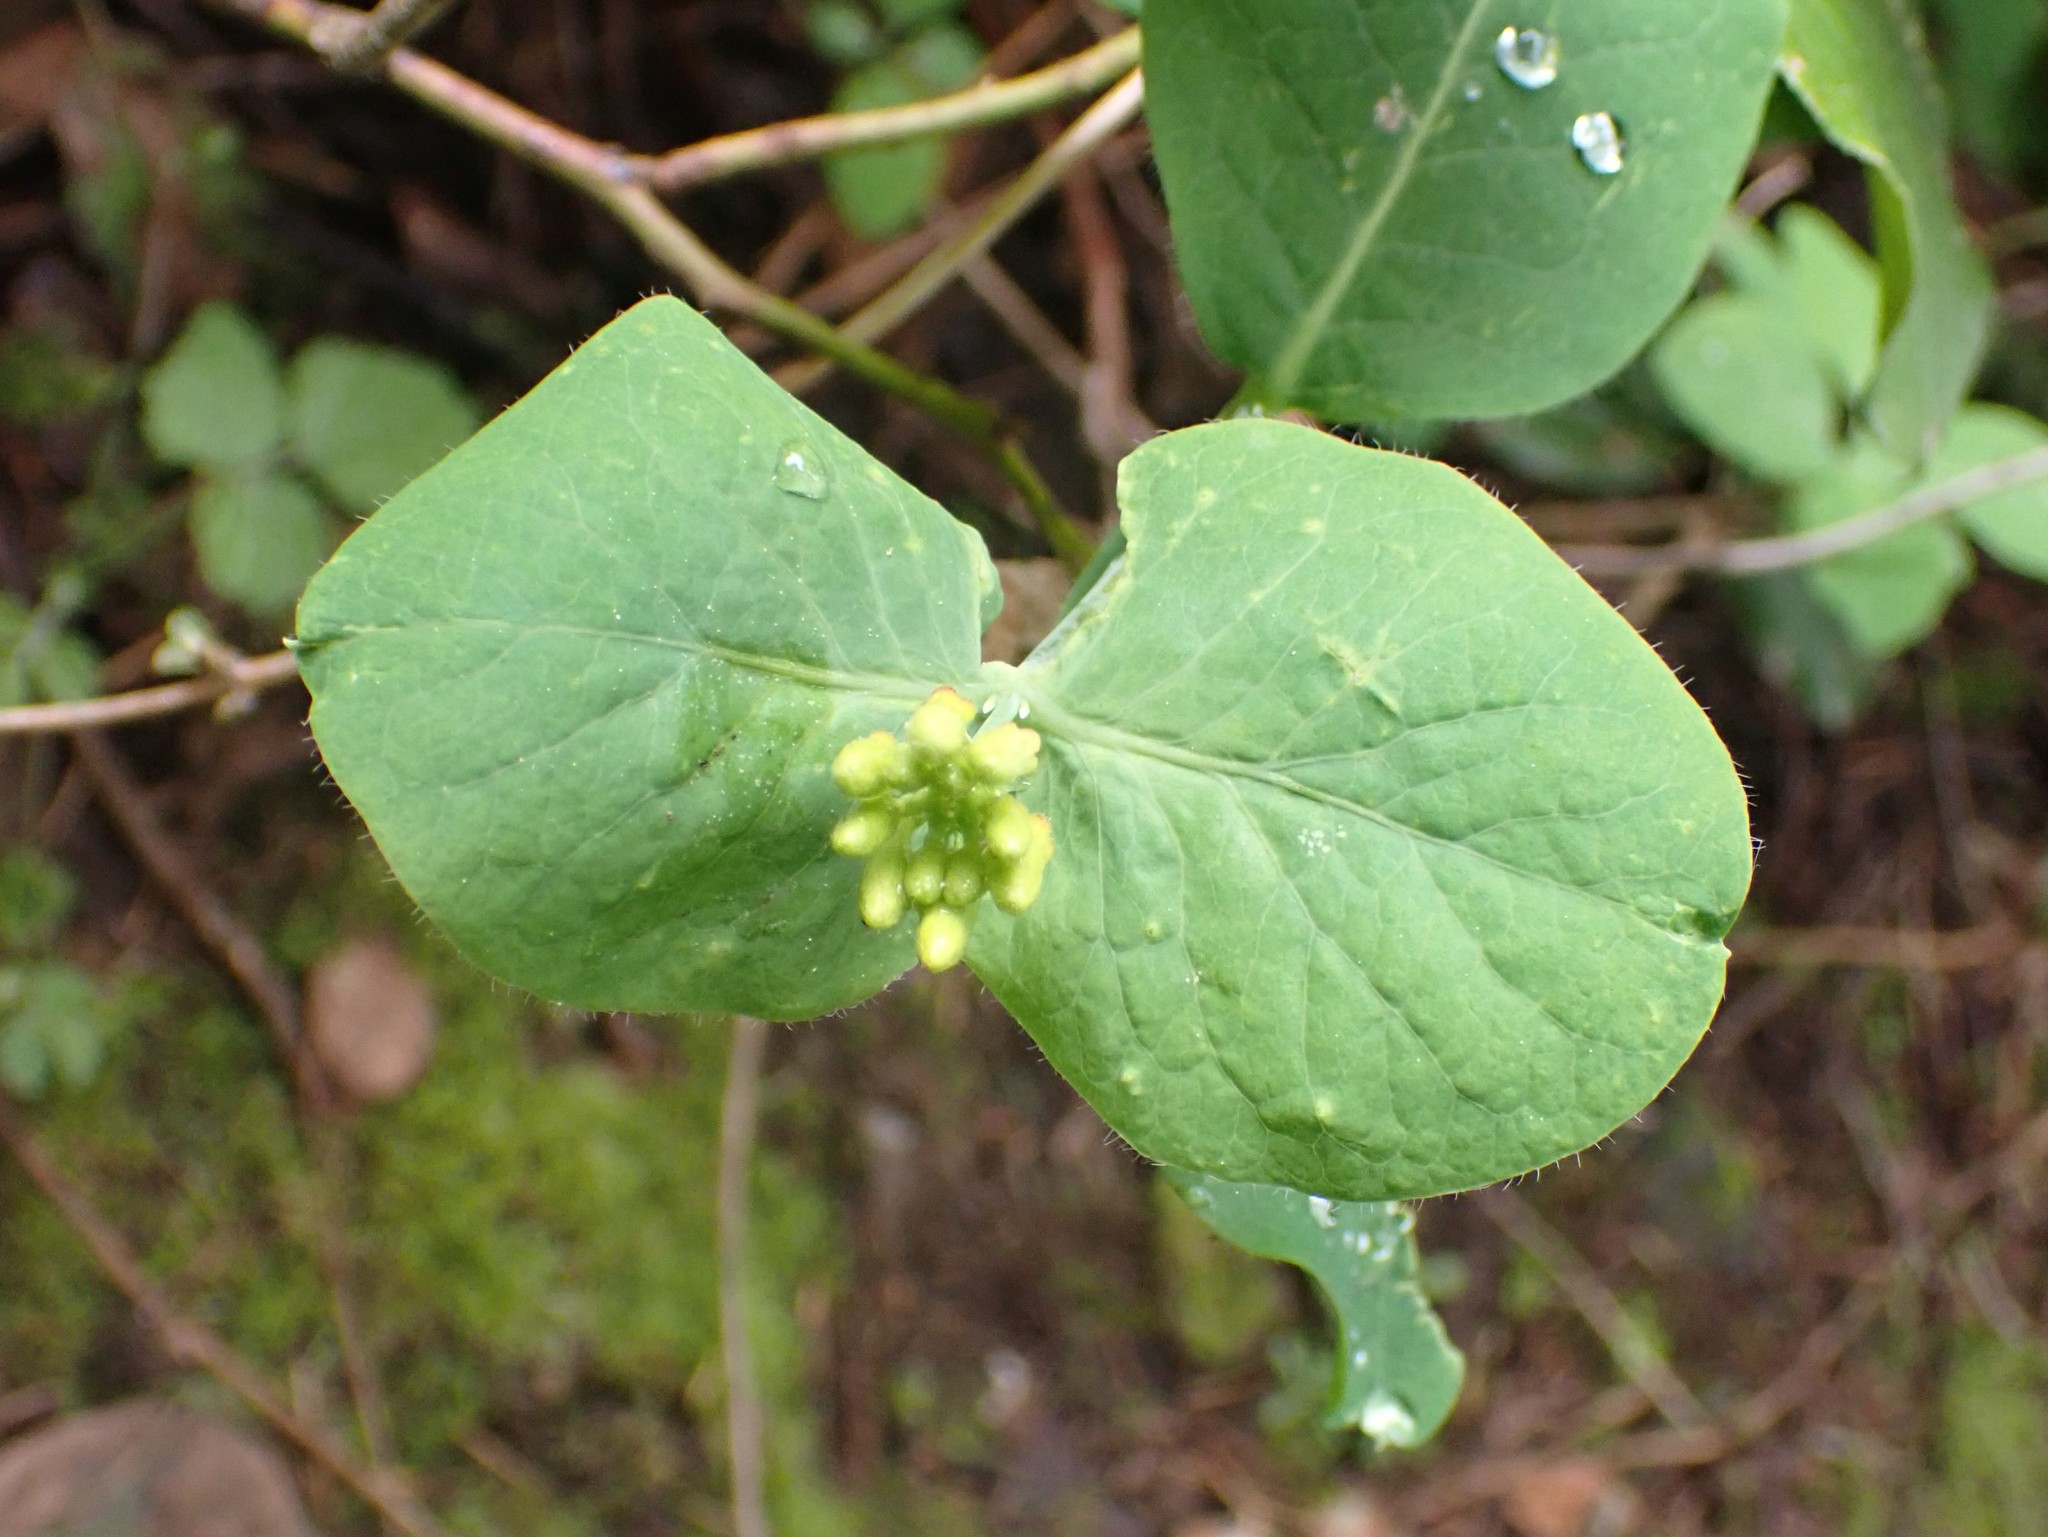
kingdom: Plantae
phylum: Tracheophyta
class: Magnoliopsida
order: Dipsacales
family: Caprifoliaceae
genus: Lonicera
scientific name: Lonicera ciliosa
